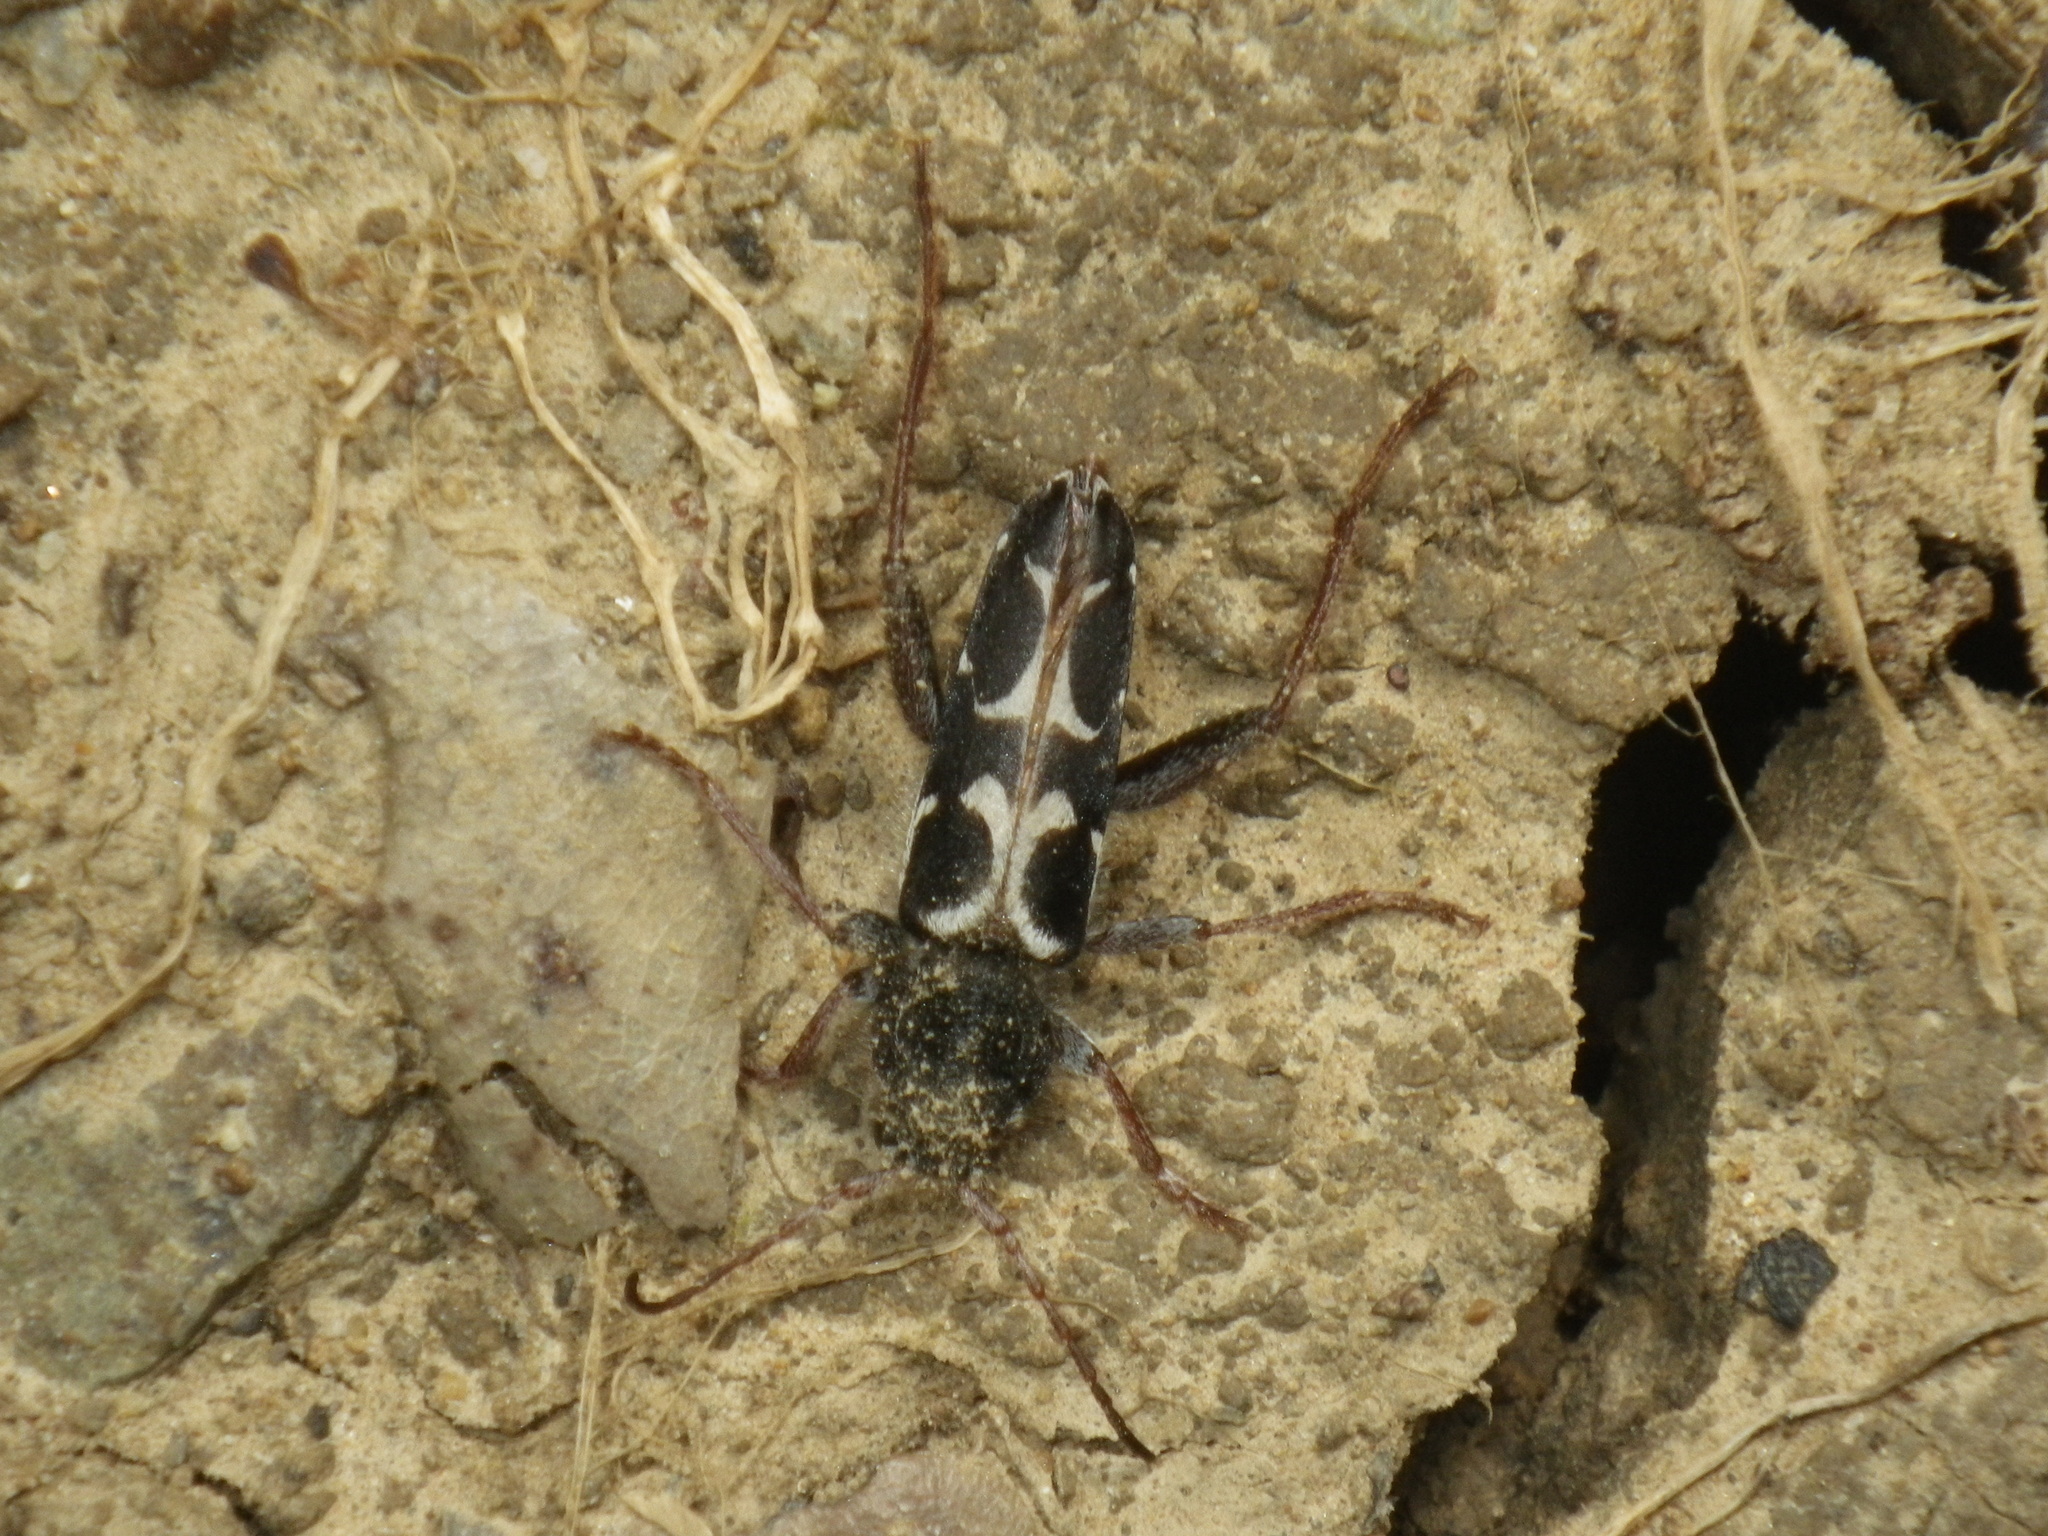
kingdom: Animalia
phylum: Arthropoda
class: Insecta
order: Coleoptera
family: Cerambycidae
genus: Neoclytus
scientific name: Neoclytus conjunctus
